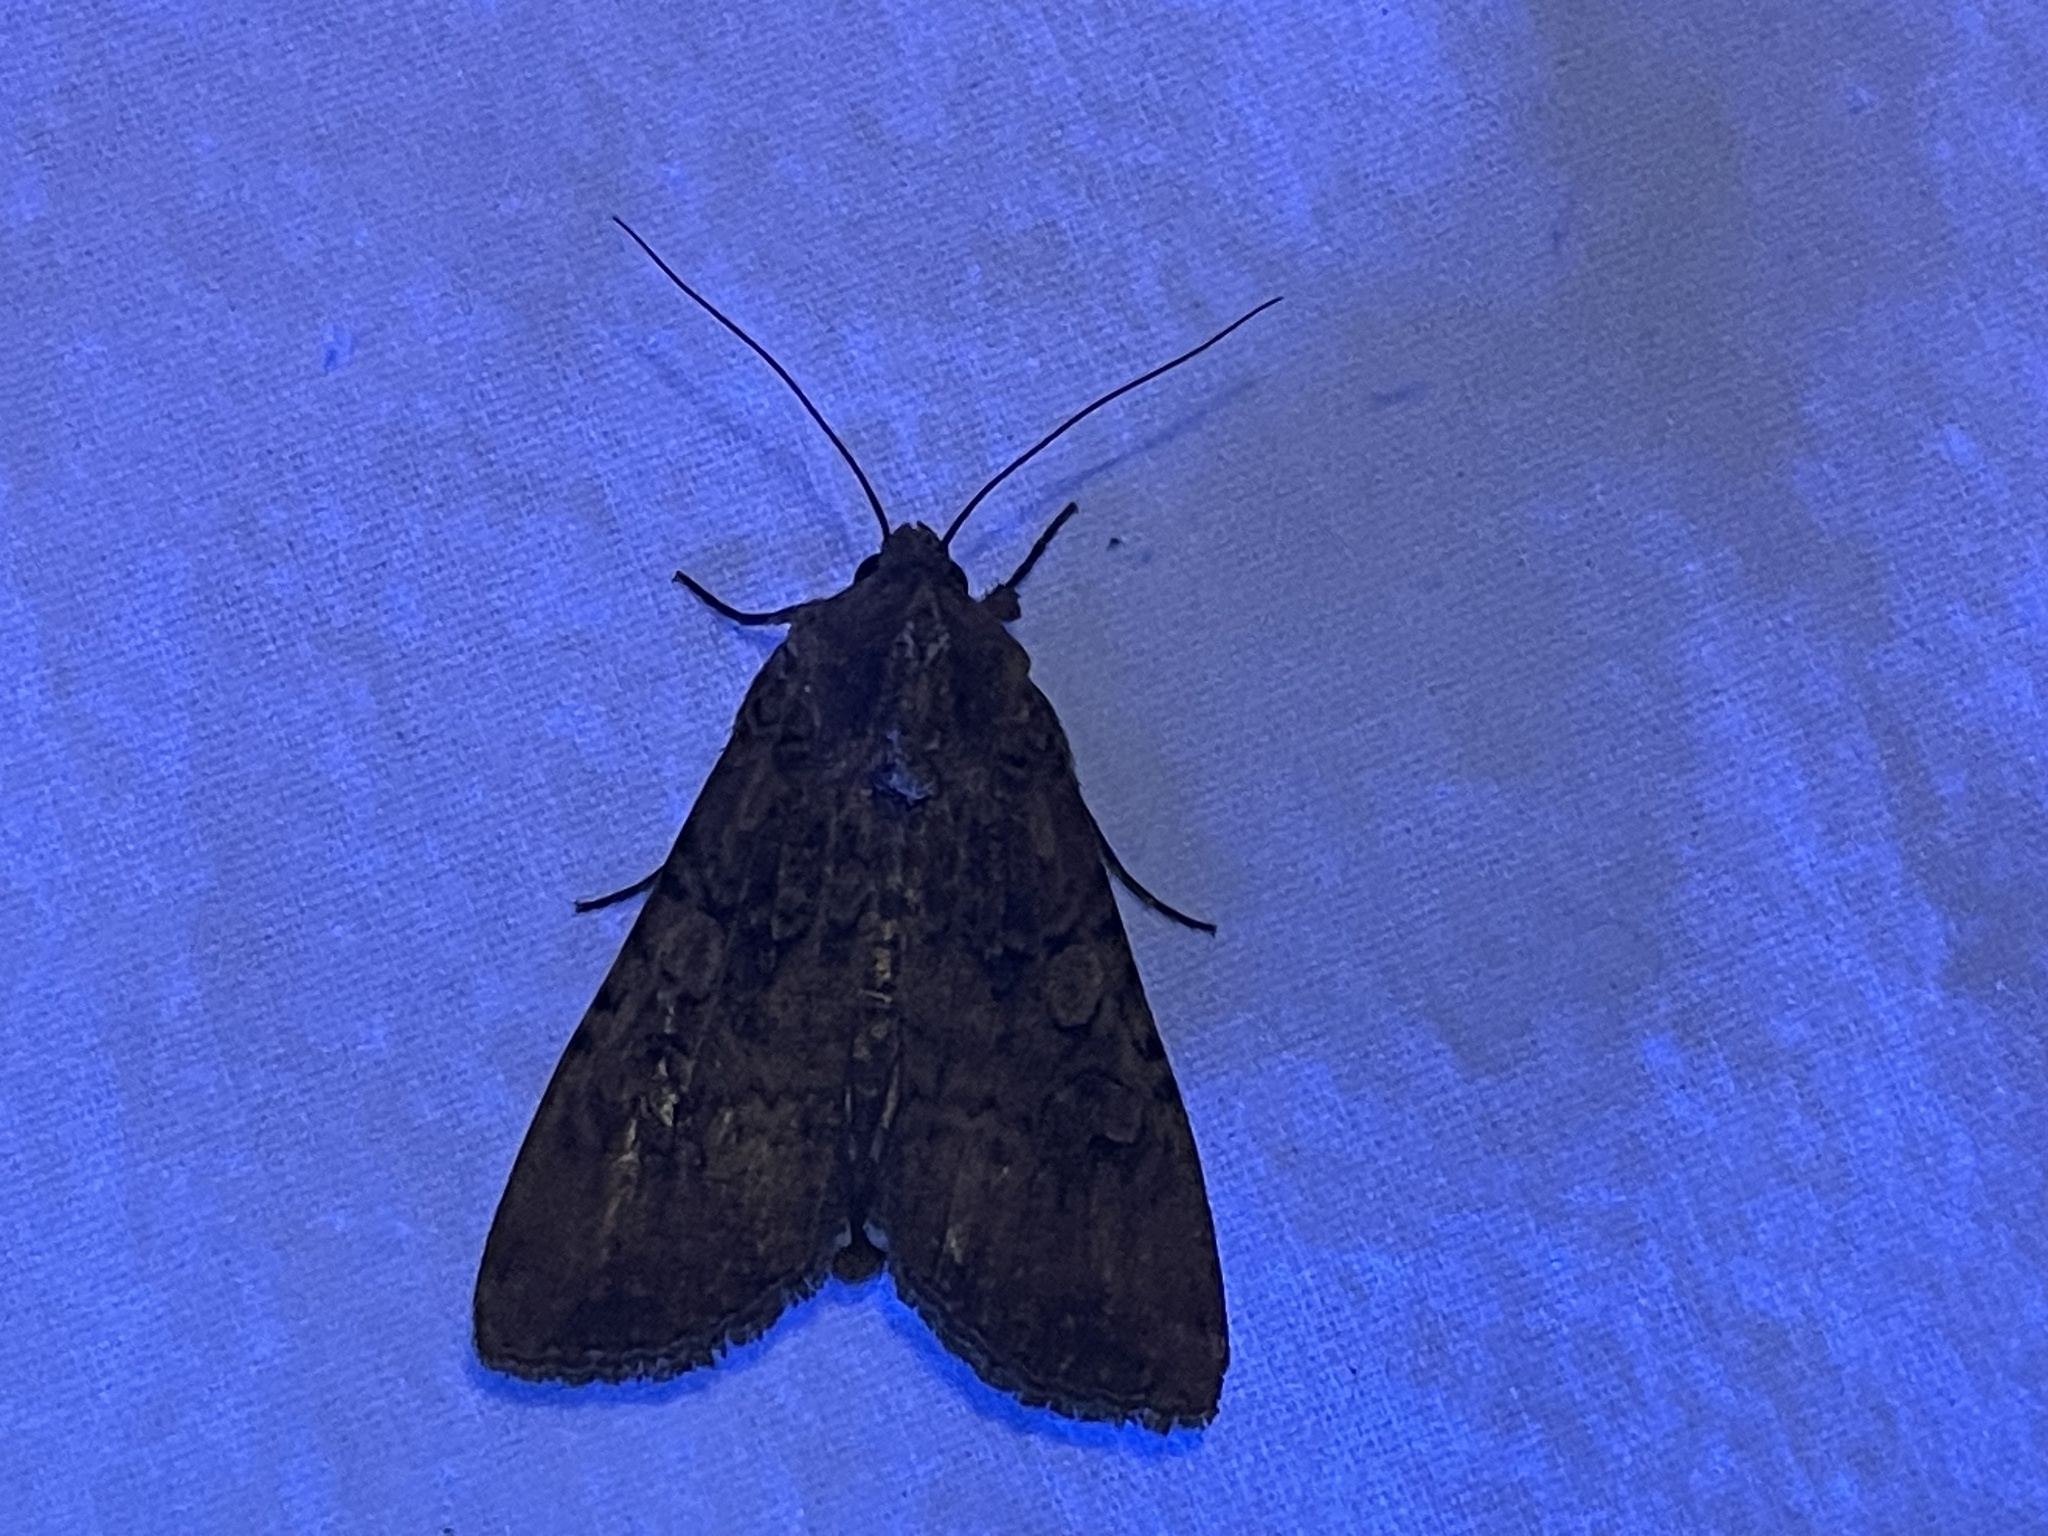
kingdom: Animalia
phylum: Arthropoda
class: Insecta
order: Lepidoptera
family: Noctuidae
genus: Peridroma
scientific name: Peridroma saucia
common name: Pearly underwing
